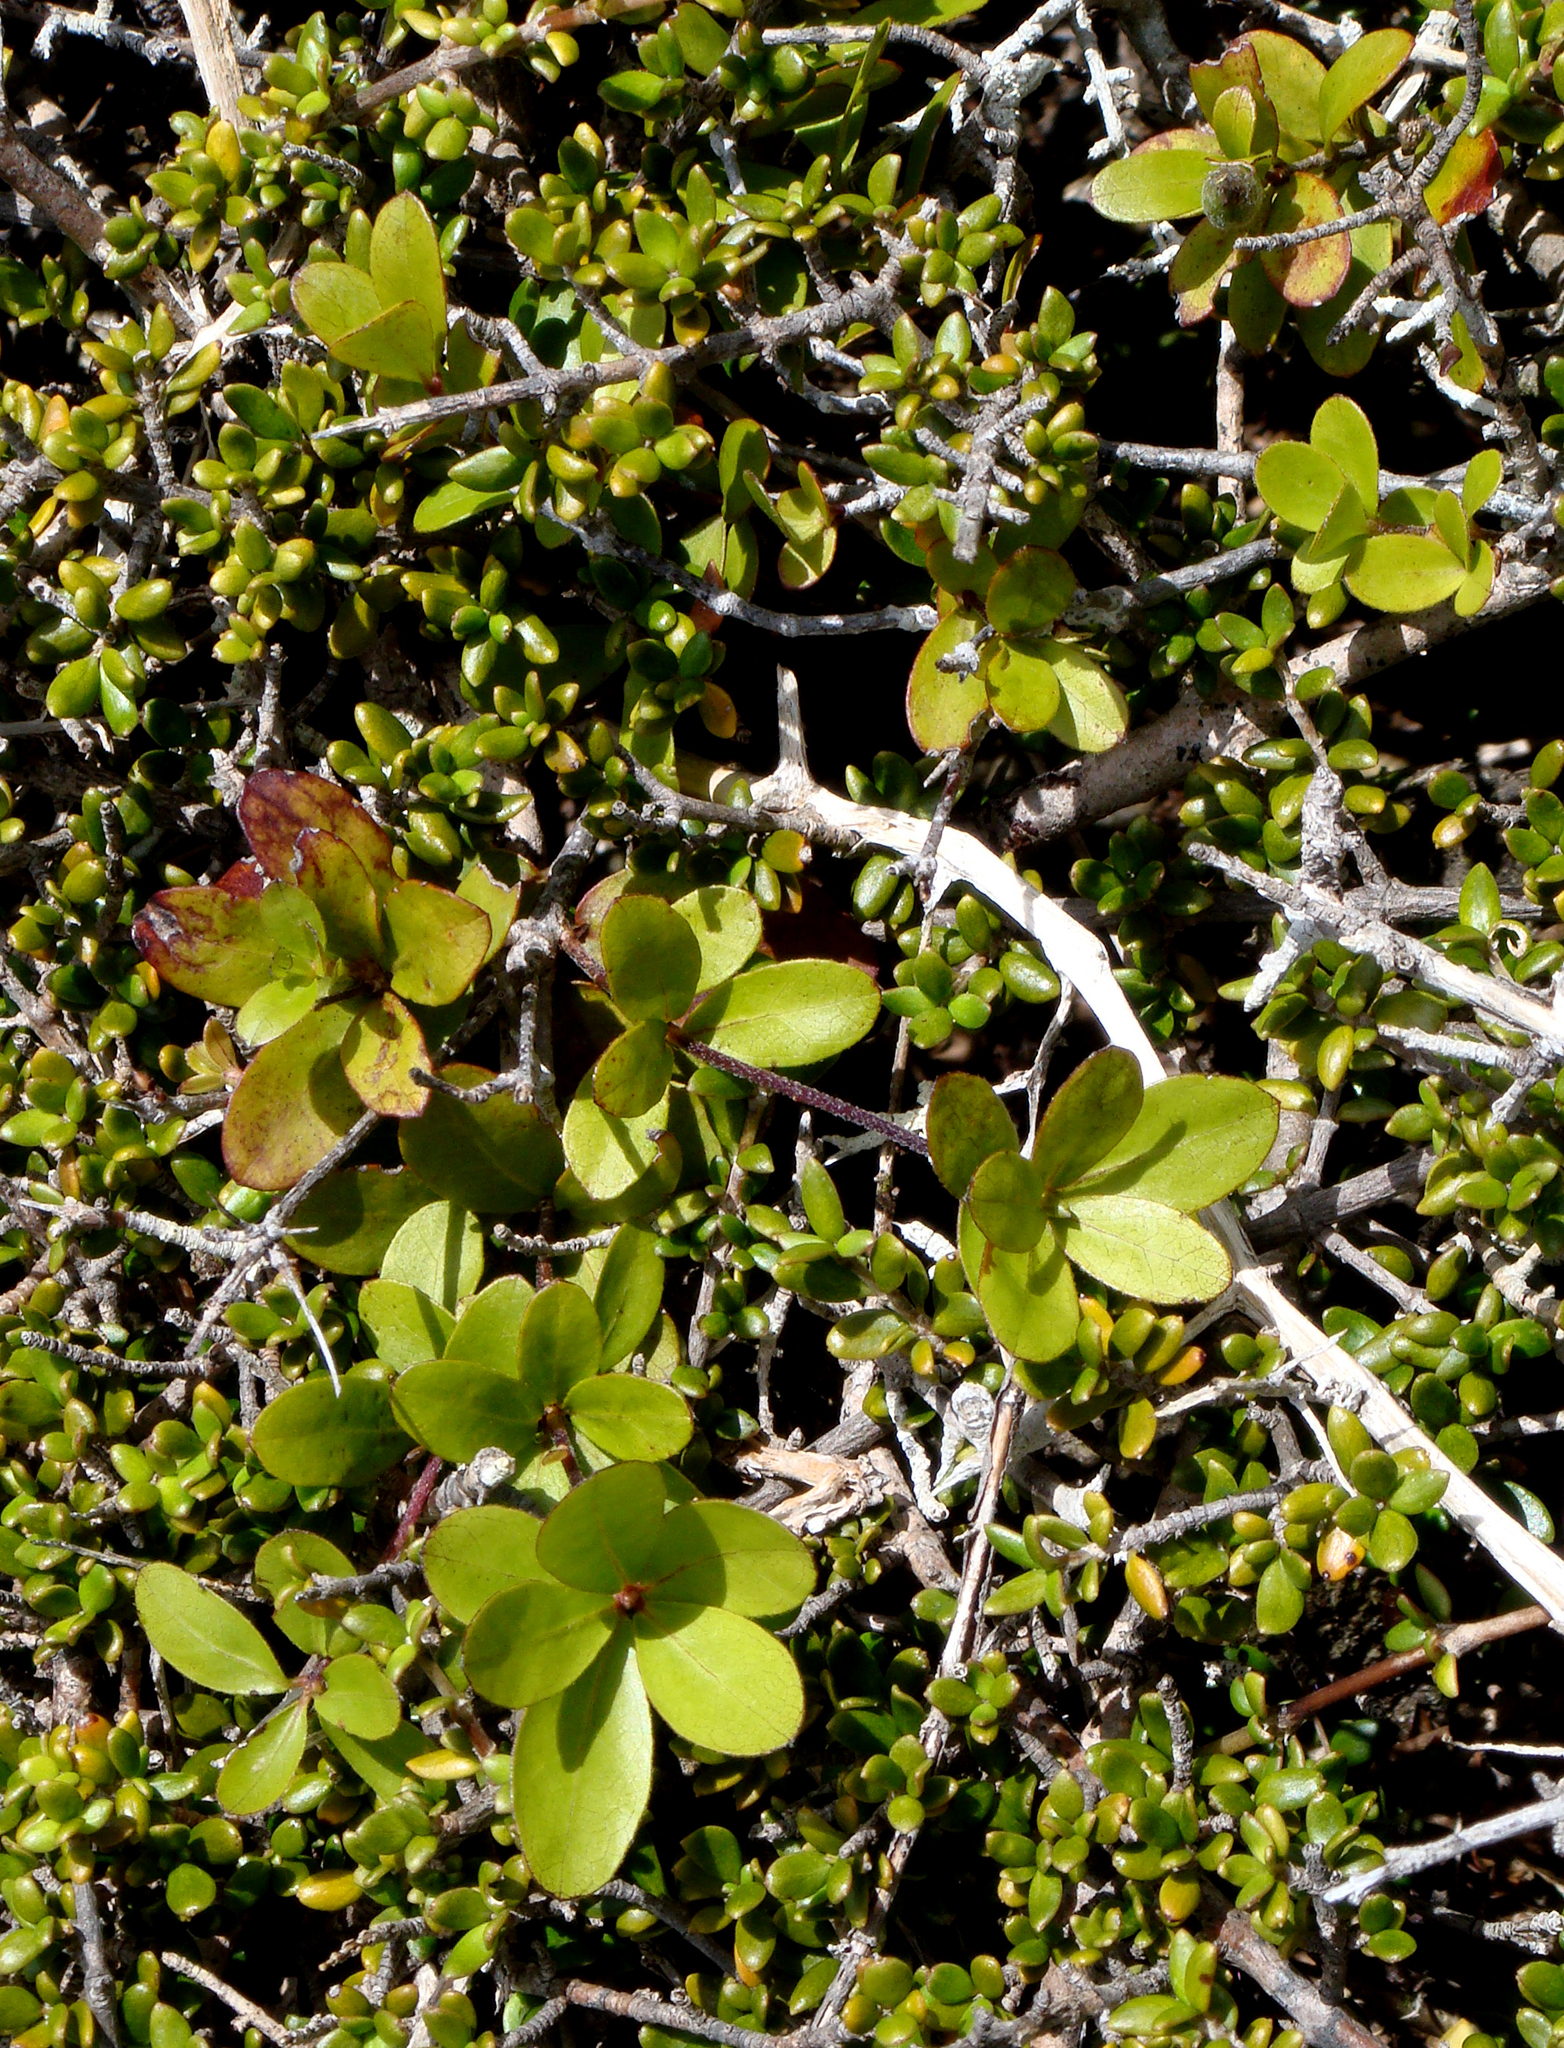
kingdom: Plantae
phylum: Tracheophyta
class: Magnoliopsida
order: Apiales
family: Pittosporaceae
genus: Pittosporum
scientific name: Pittosporum pimeleoides
